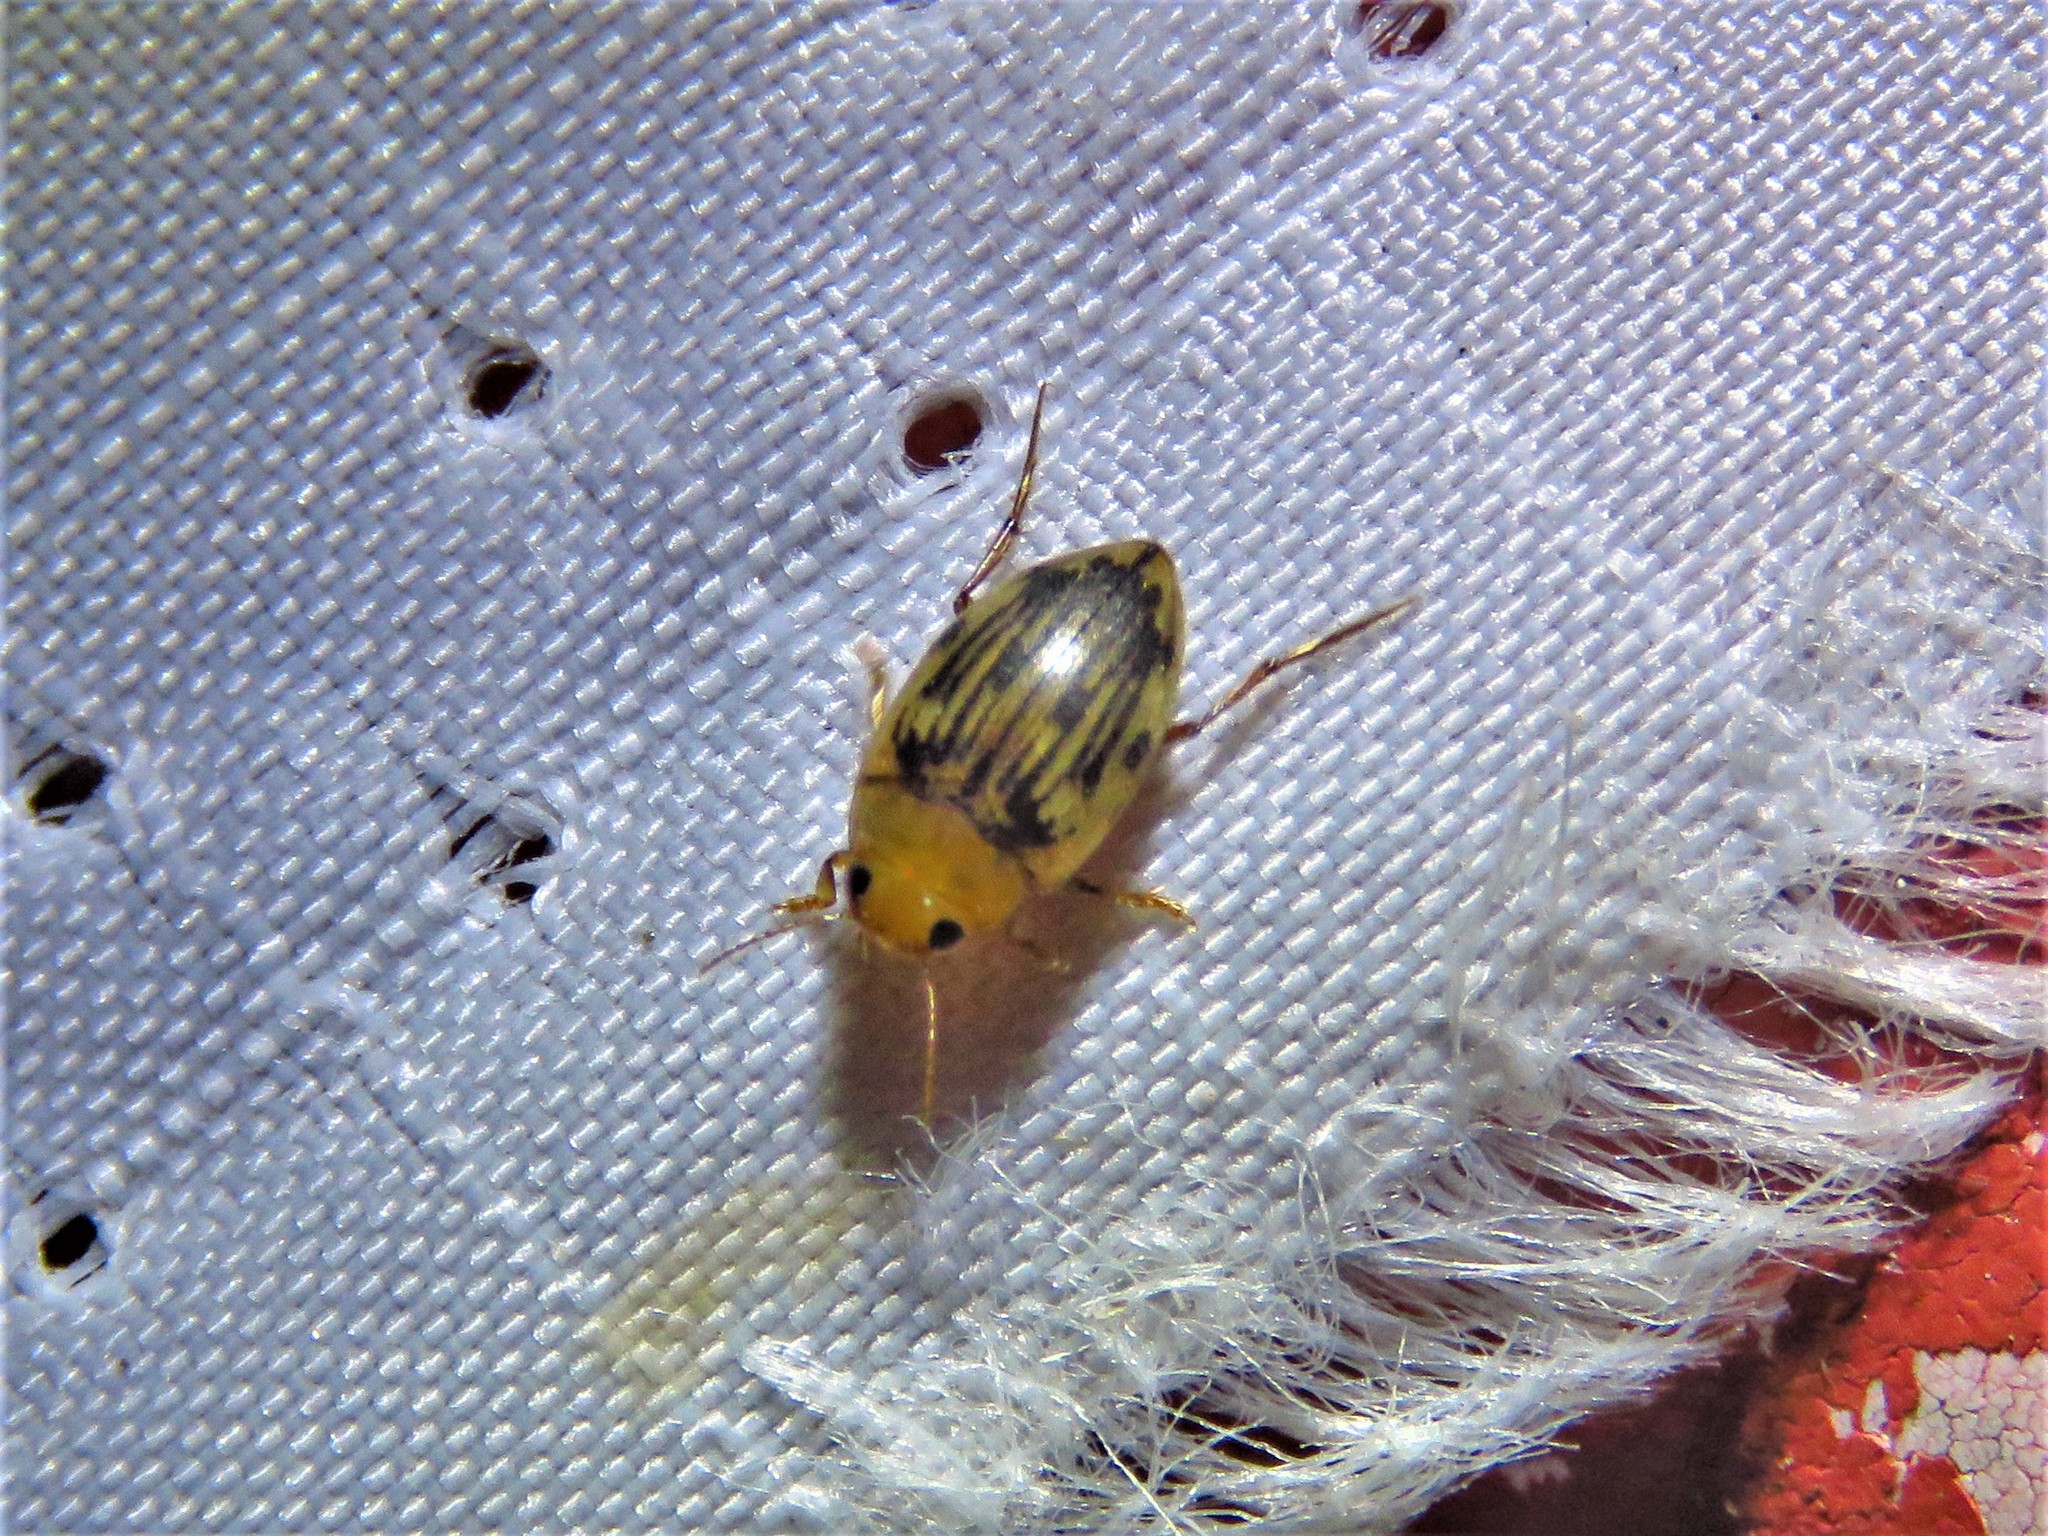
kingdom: Animalia
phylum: Arthropoda
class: Insecta
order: Coleoptera
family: Dytiscidae
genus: Neoporus
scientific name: Neoporus dimidiatus
